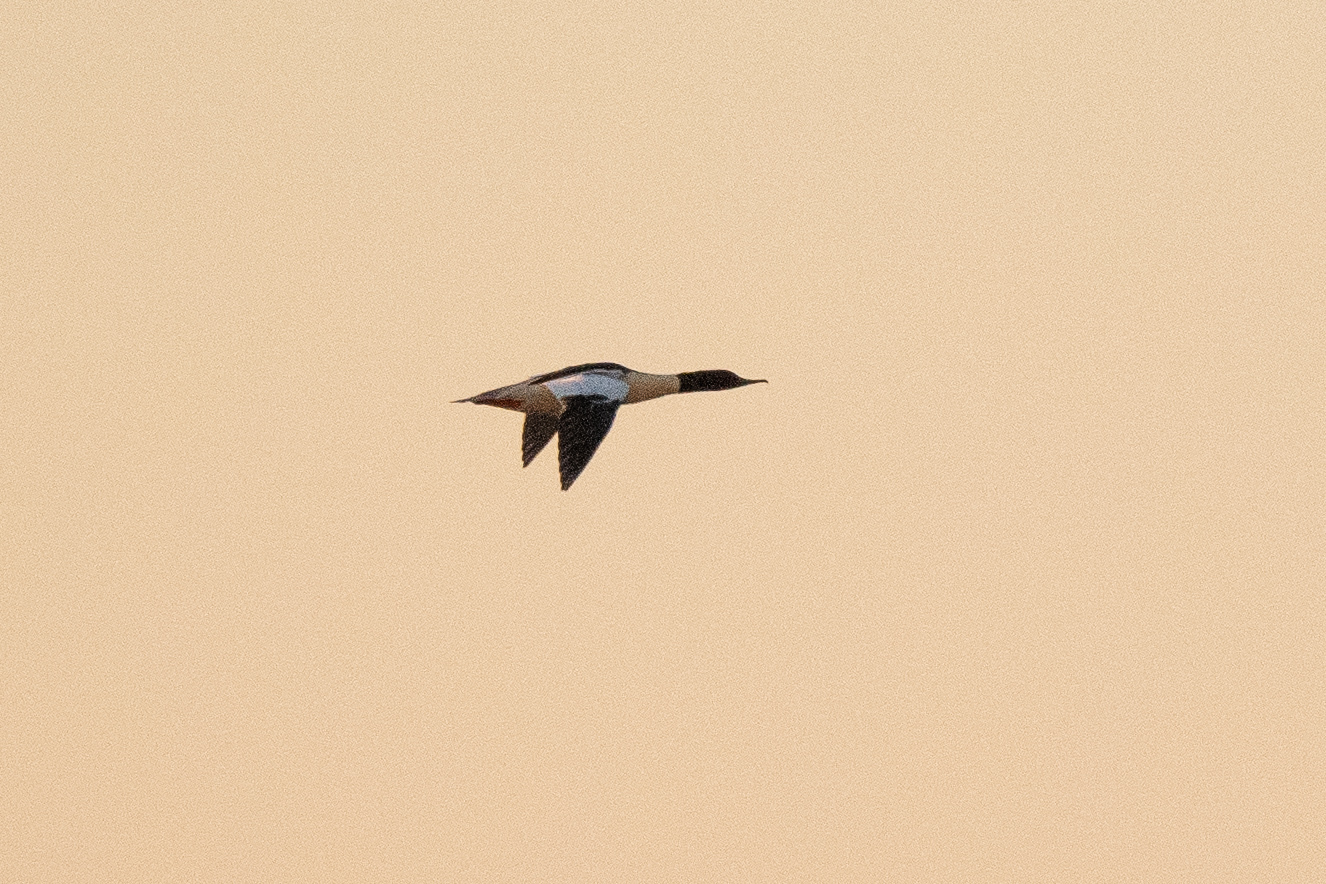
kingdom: Animalia
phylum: Chordata
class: Aves
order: Anseriformes
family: Anatidae
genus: Mergus
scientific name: Mergus merganser
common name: Common merganser
